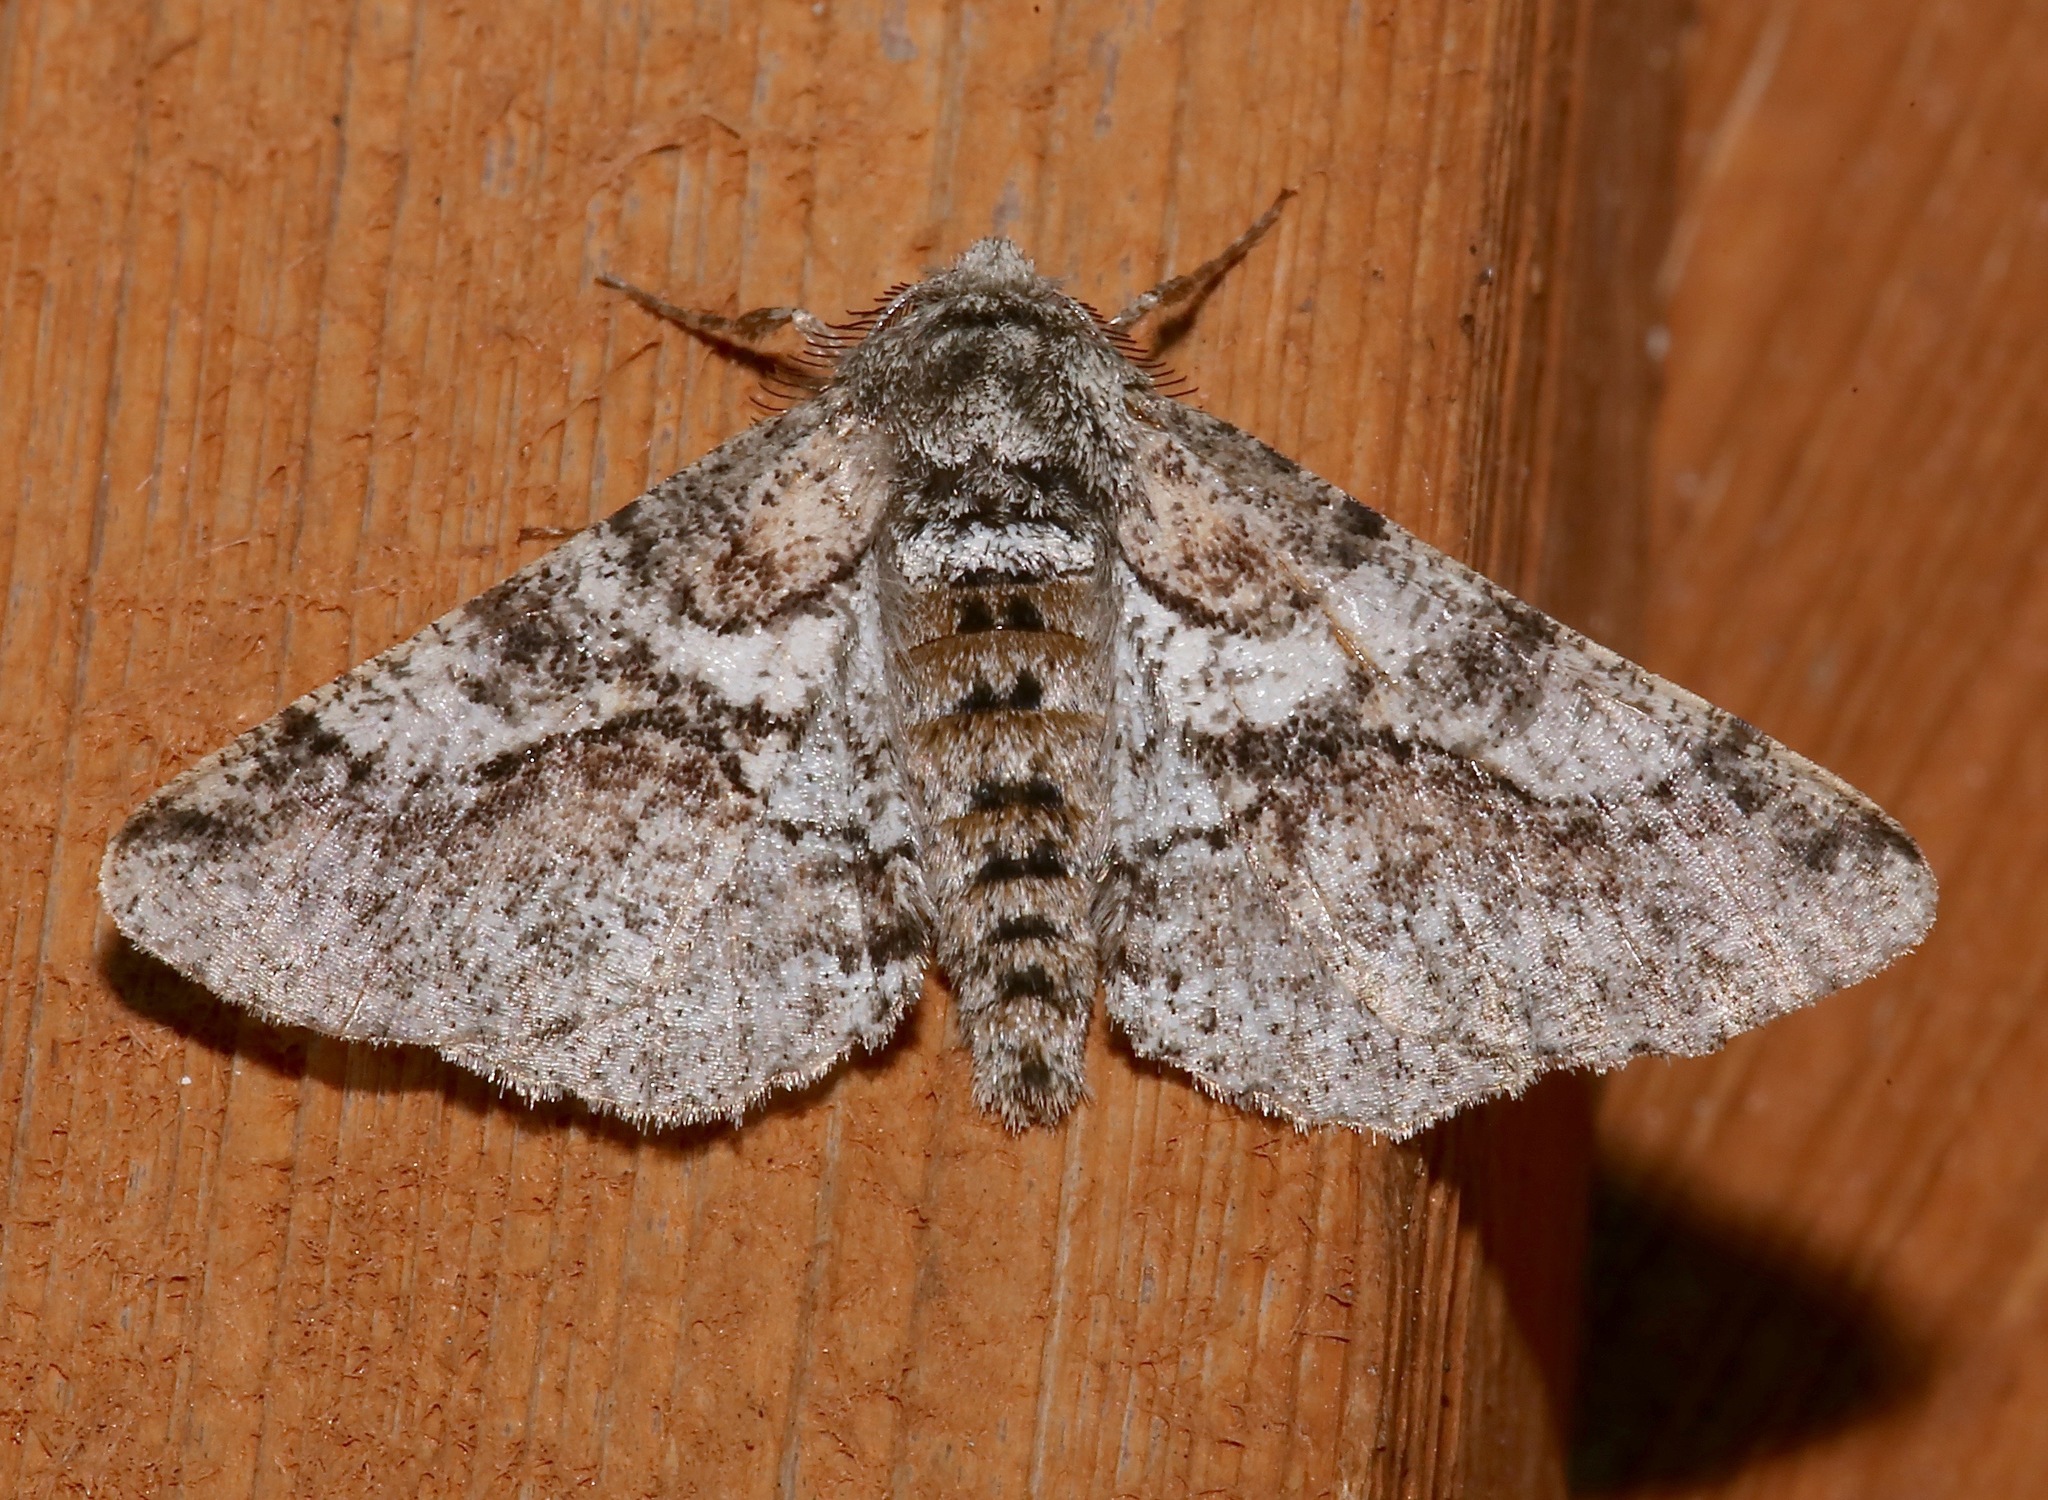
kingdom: Animalia
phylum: Arthropoda
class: Insecta
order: Lepidoptera
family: Geometridae
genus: Lycia
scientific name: Lycia ypsilon
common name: Wooly gray
